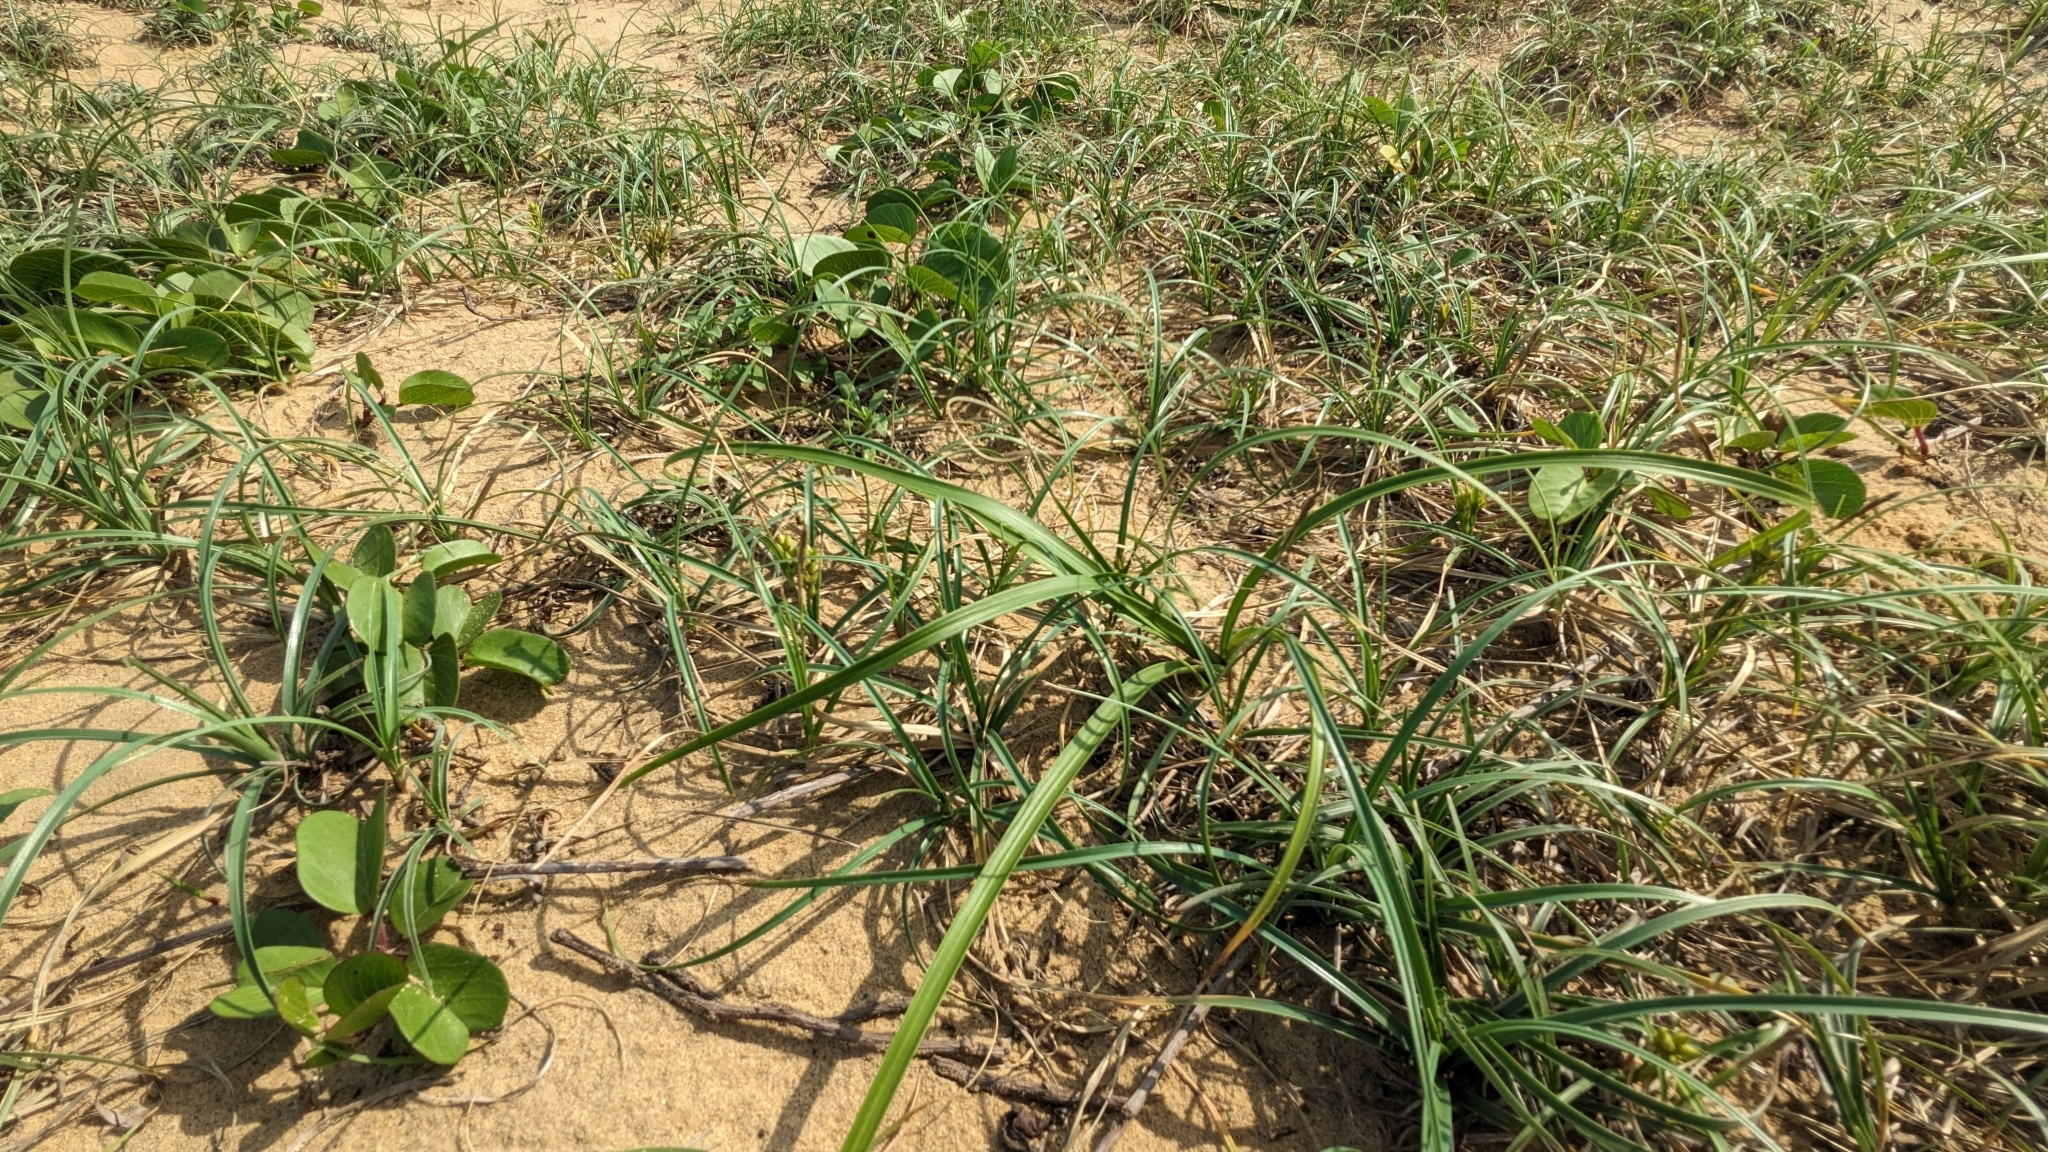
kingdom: Plantae
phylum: Tracheophyta
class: Liliopsida
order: Poales
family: Cyperaceae
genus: Carex
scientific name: Carex kobomugi
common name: Japanese sedge
